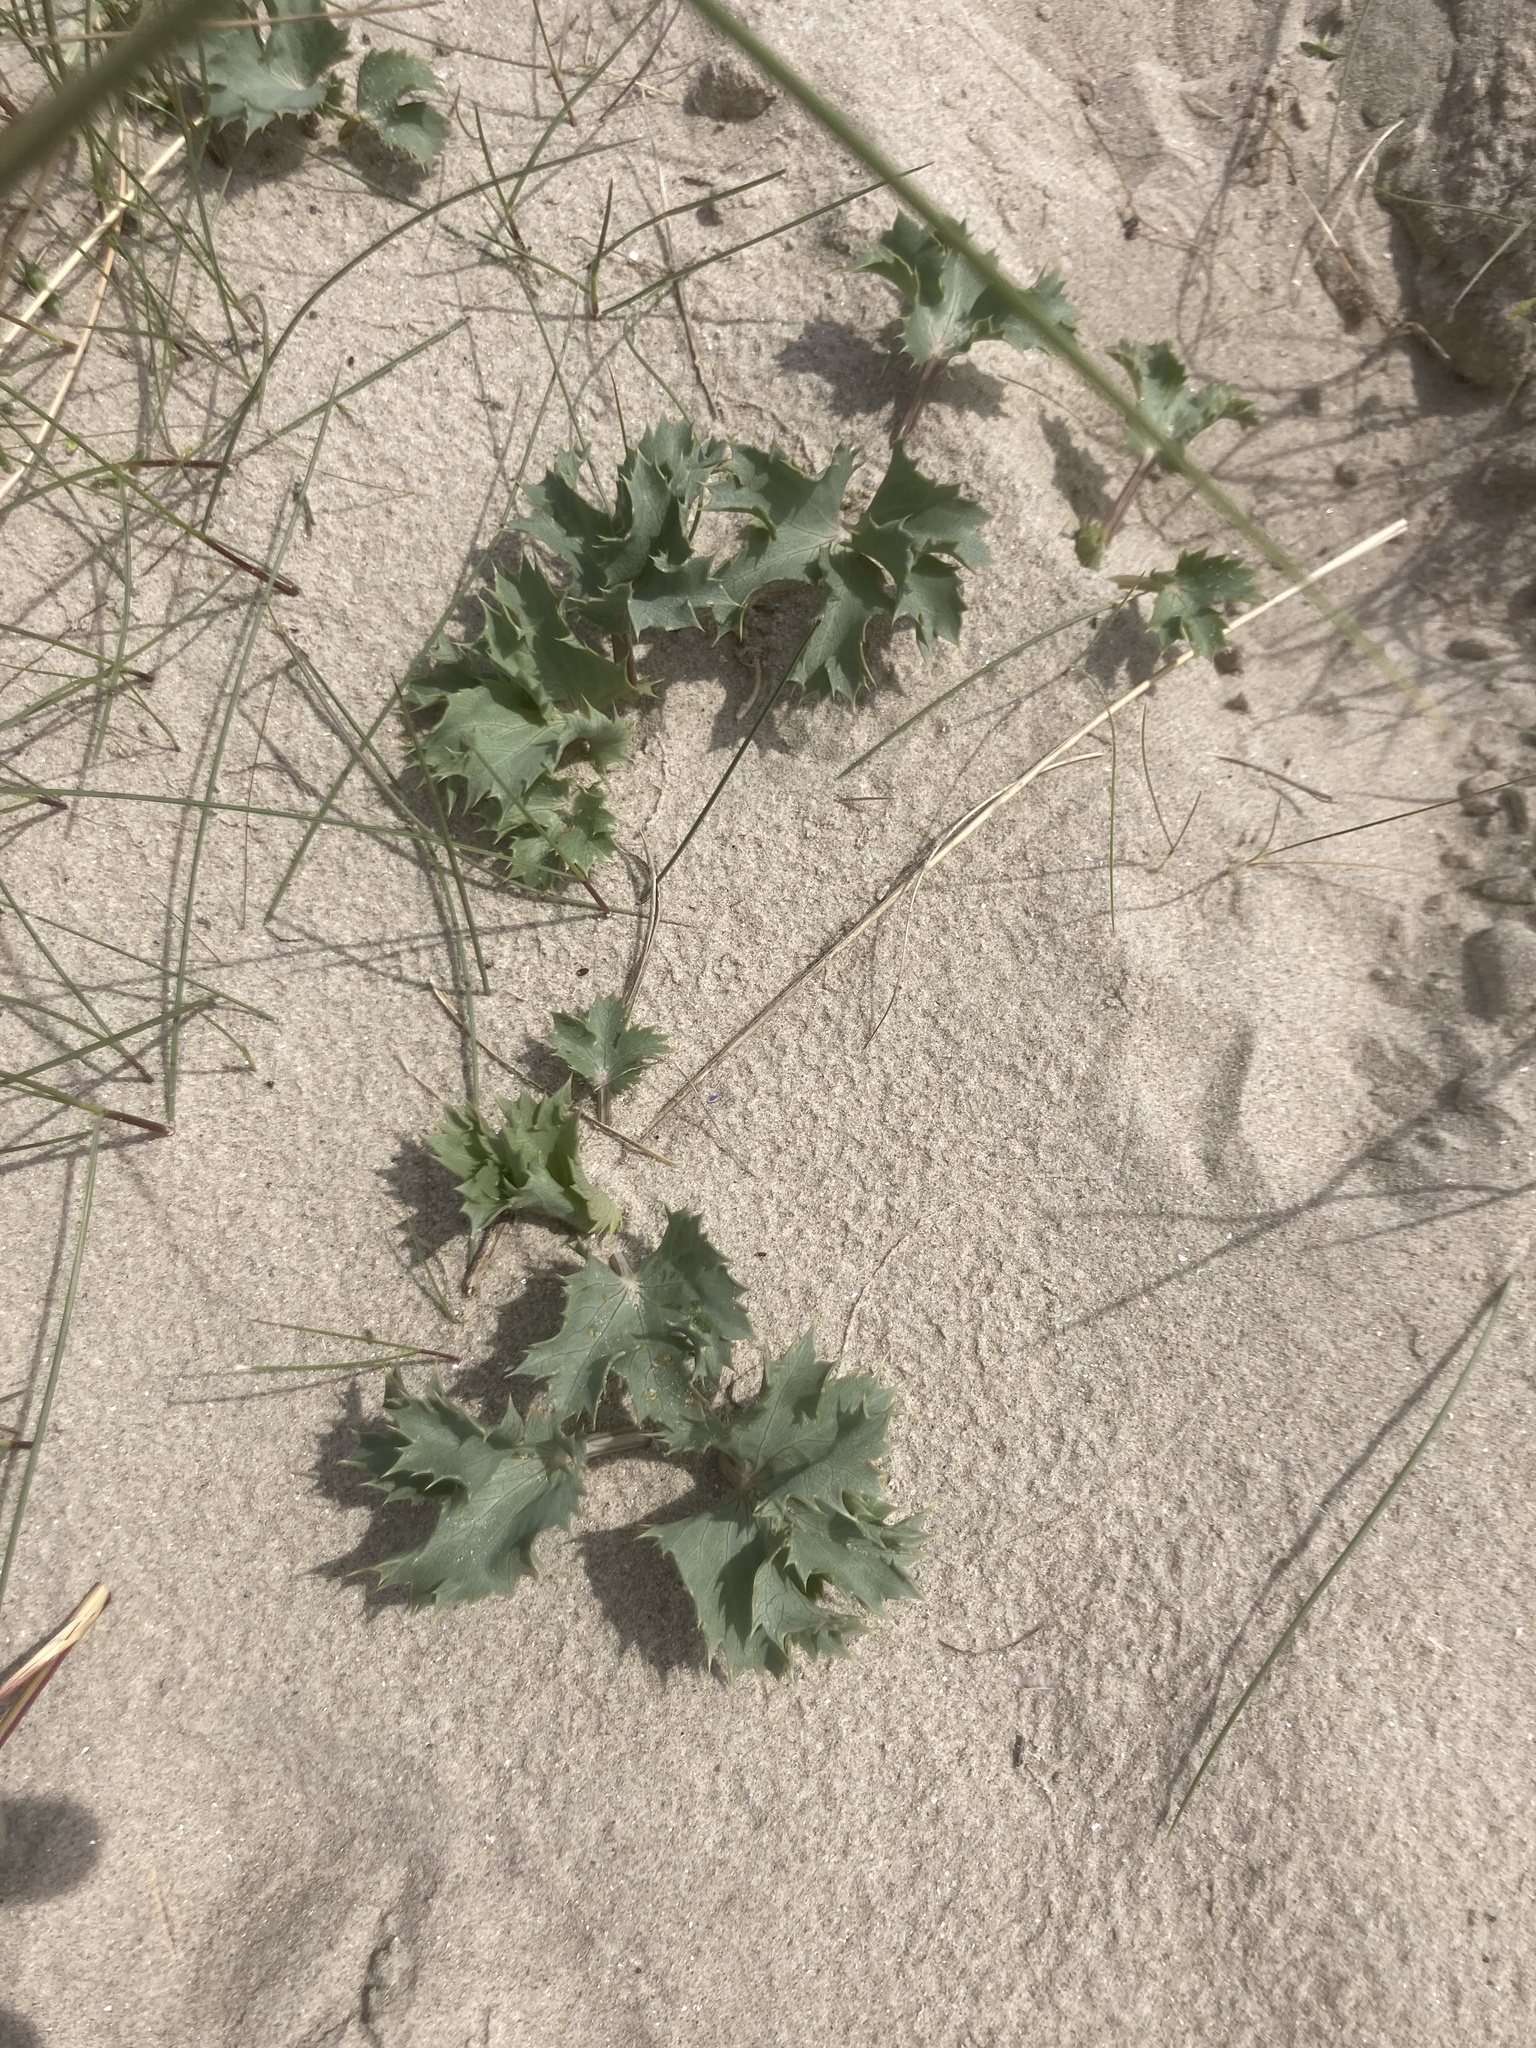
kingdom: Plantae
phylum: Tracheophyta
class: Magnoliopsida
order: Apiales
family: Apiaceae
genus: Eryngium
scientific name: Eryngium maritimum
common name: Sea-holly
